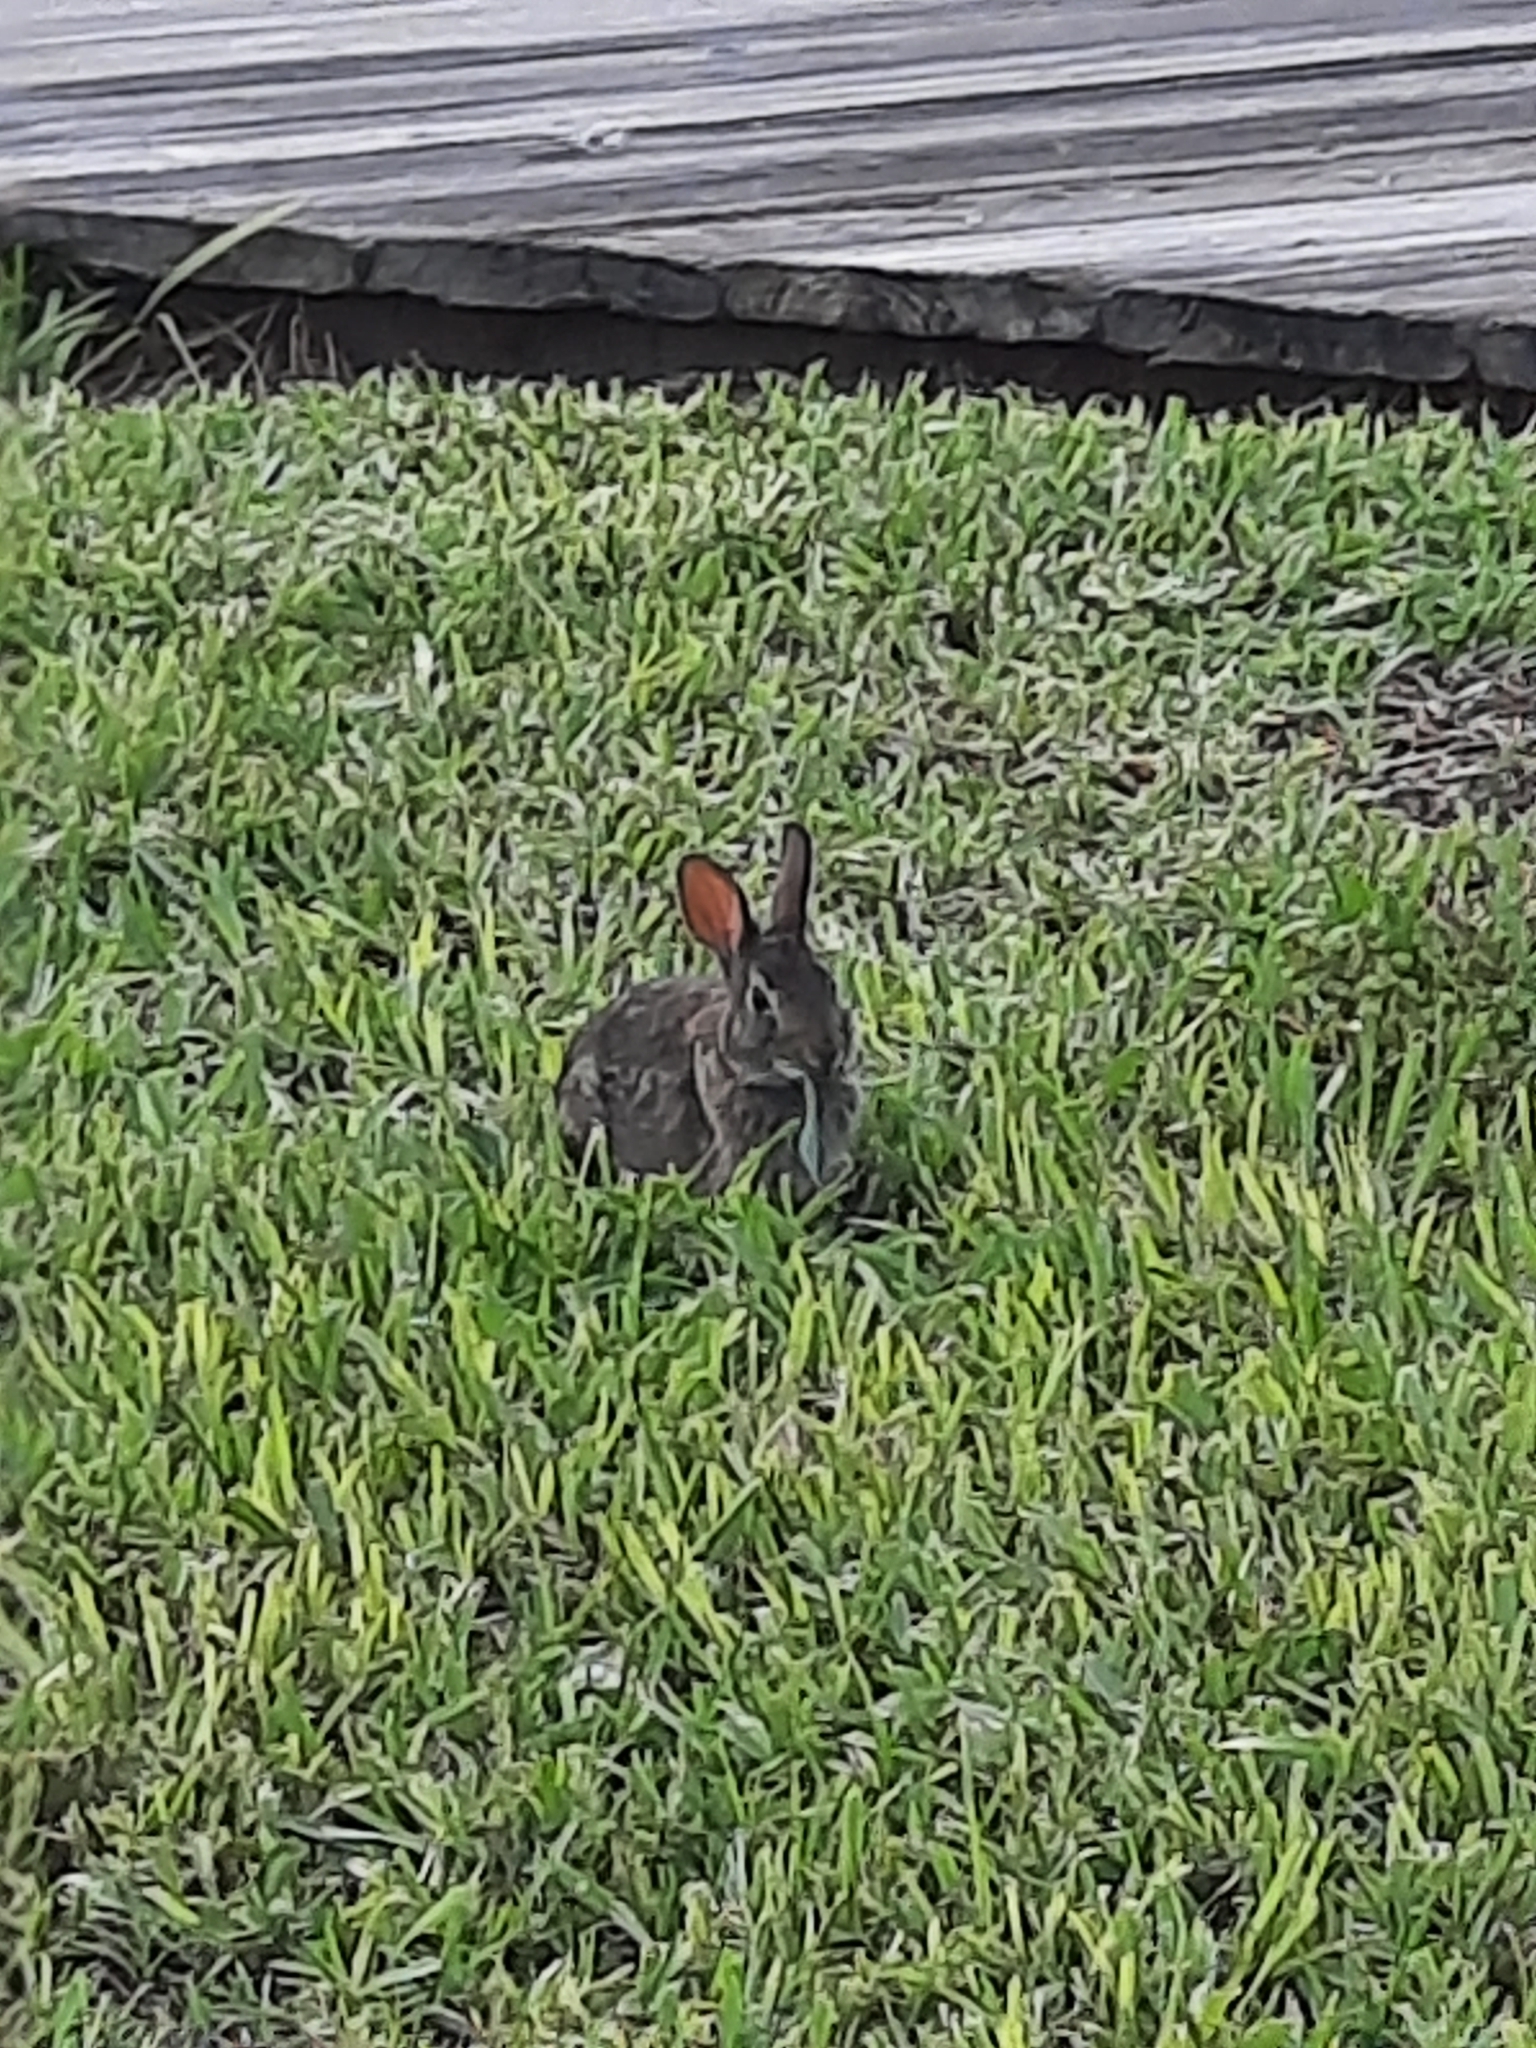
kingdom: Animalia
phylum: Chordata
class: Mammalia
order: Lagomorpha
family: Leporidae
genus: Sylvilagus
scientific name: Sylvilagus floridanus
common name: Eastern cottontail
